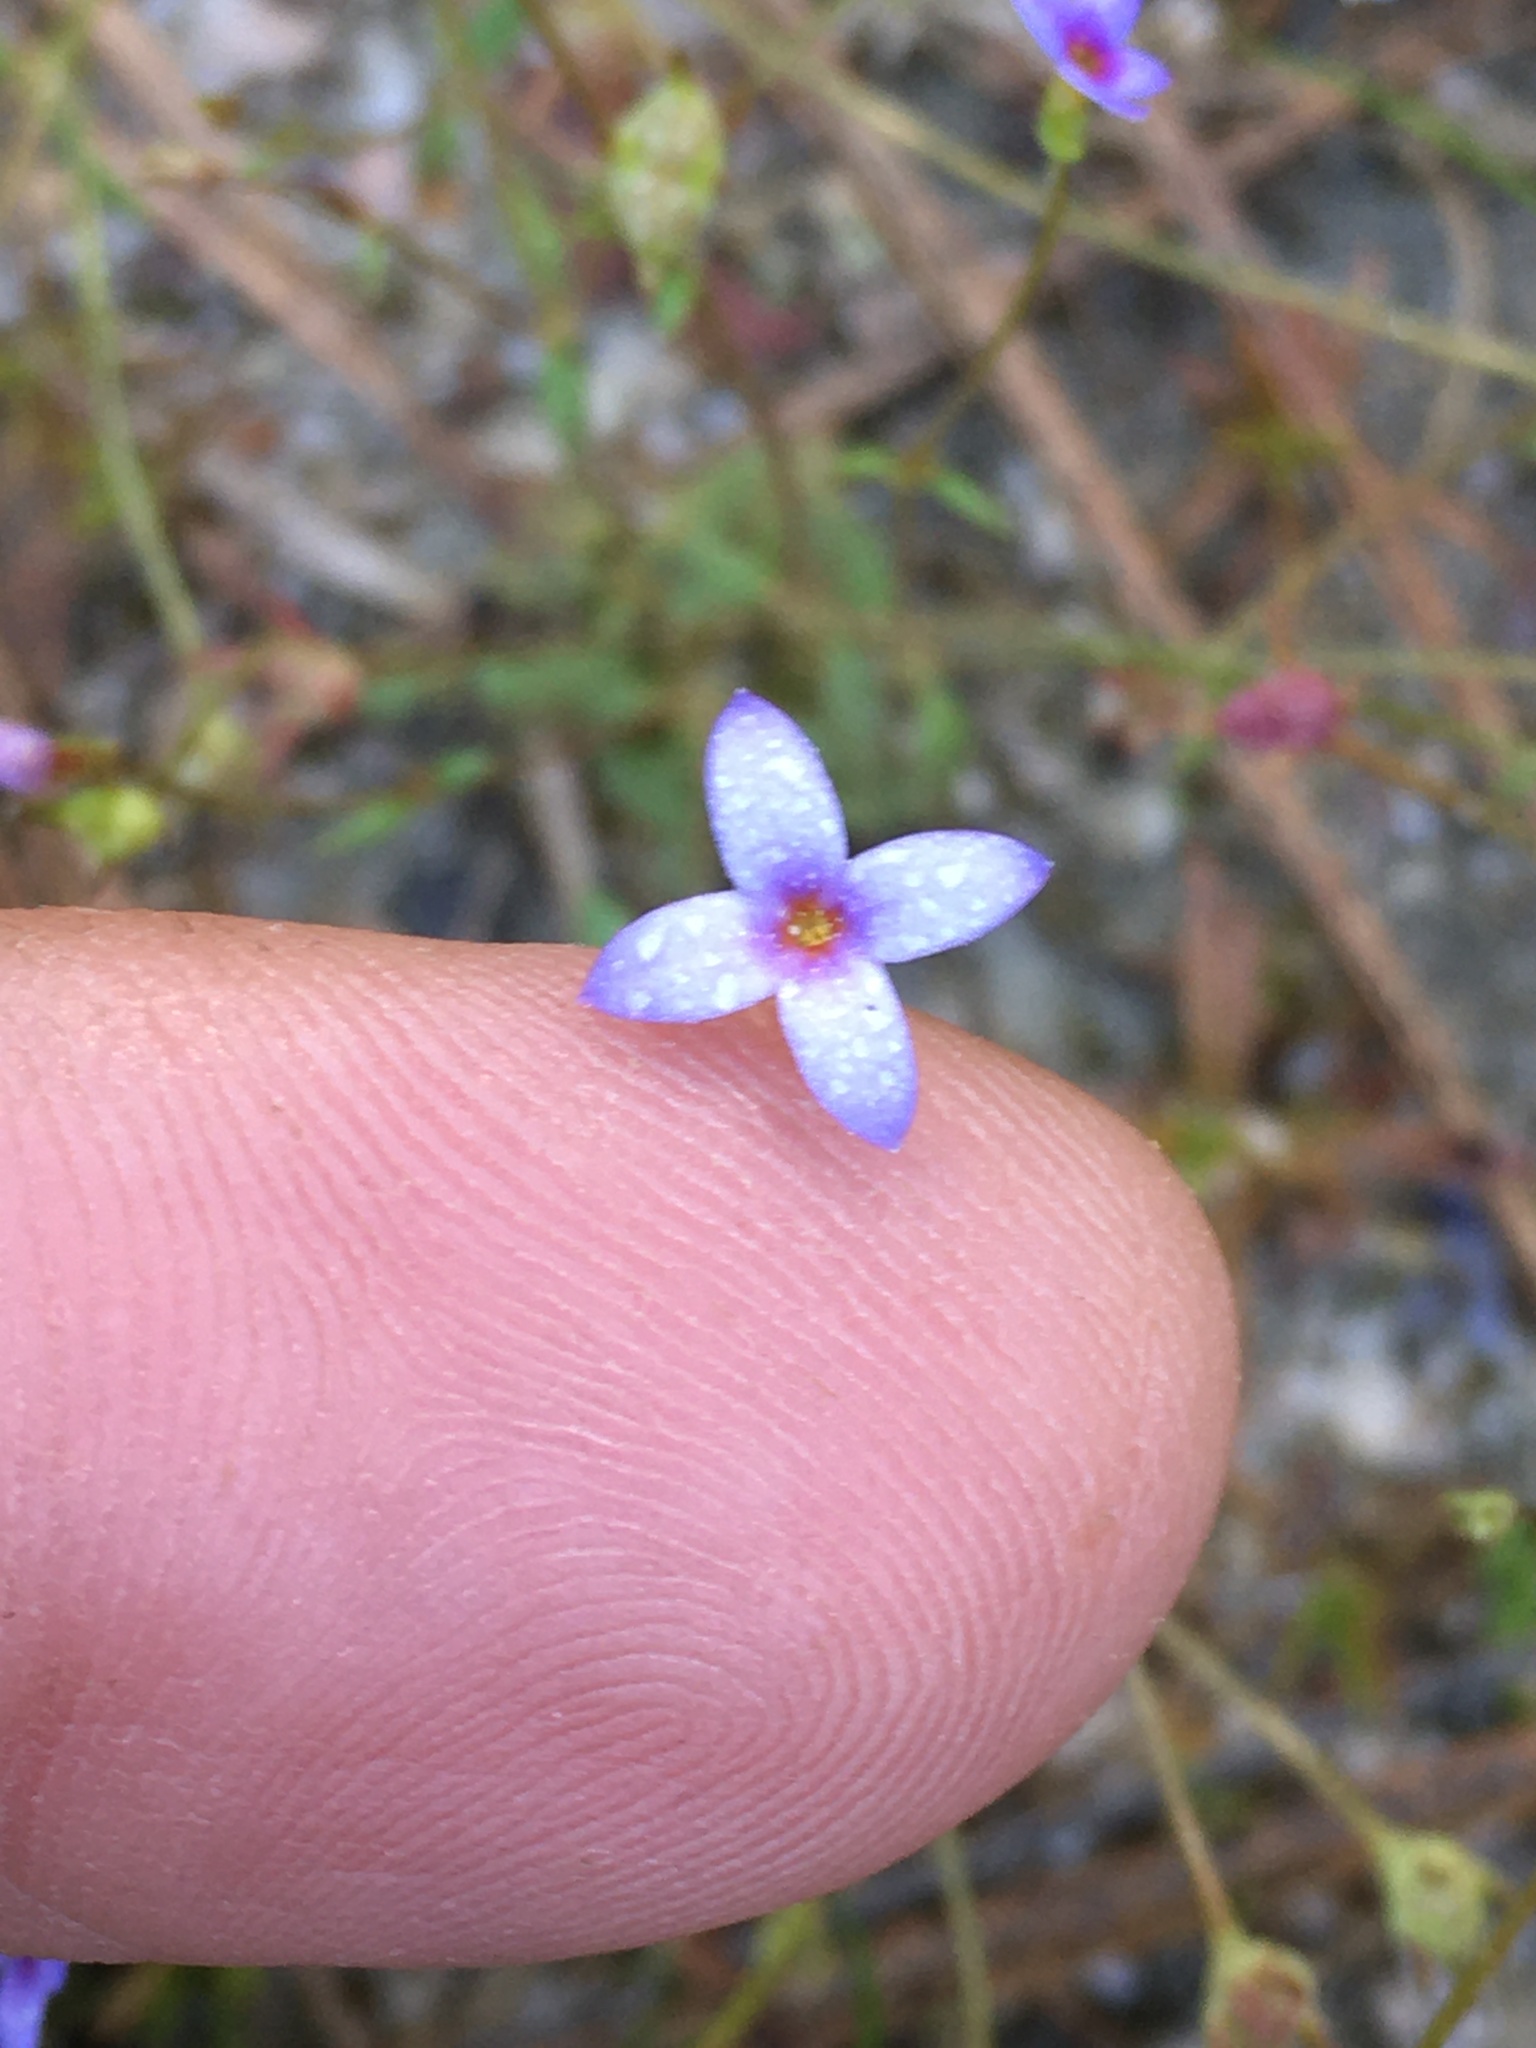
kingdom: Plantae
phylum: Tracheophyta
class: Magnoliopsida
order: Gentianales
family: Rubiaceae
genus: Houstonia
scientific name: Houstonia pusilla
